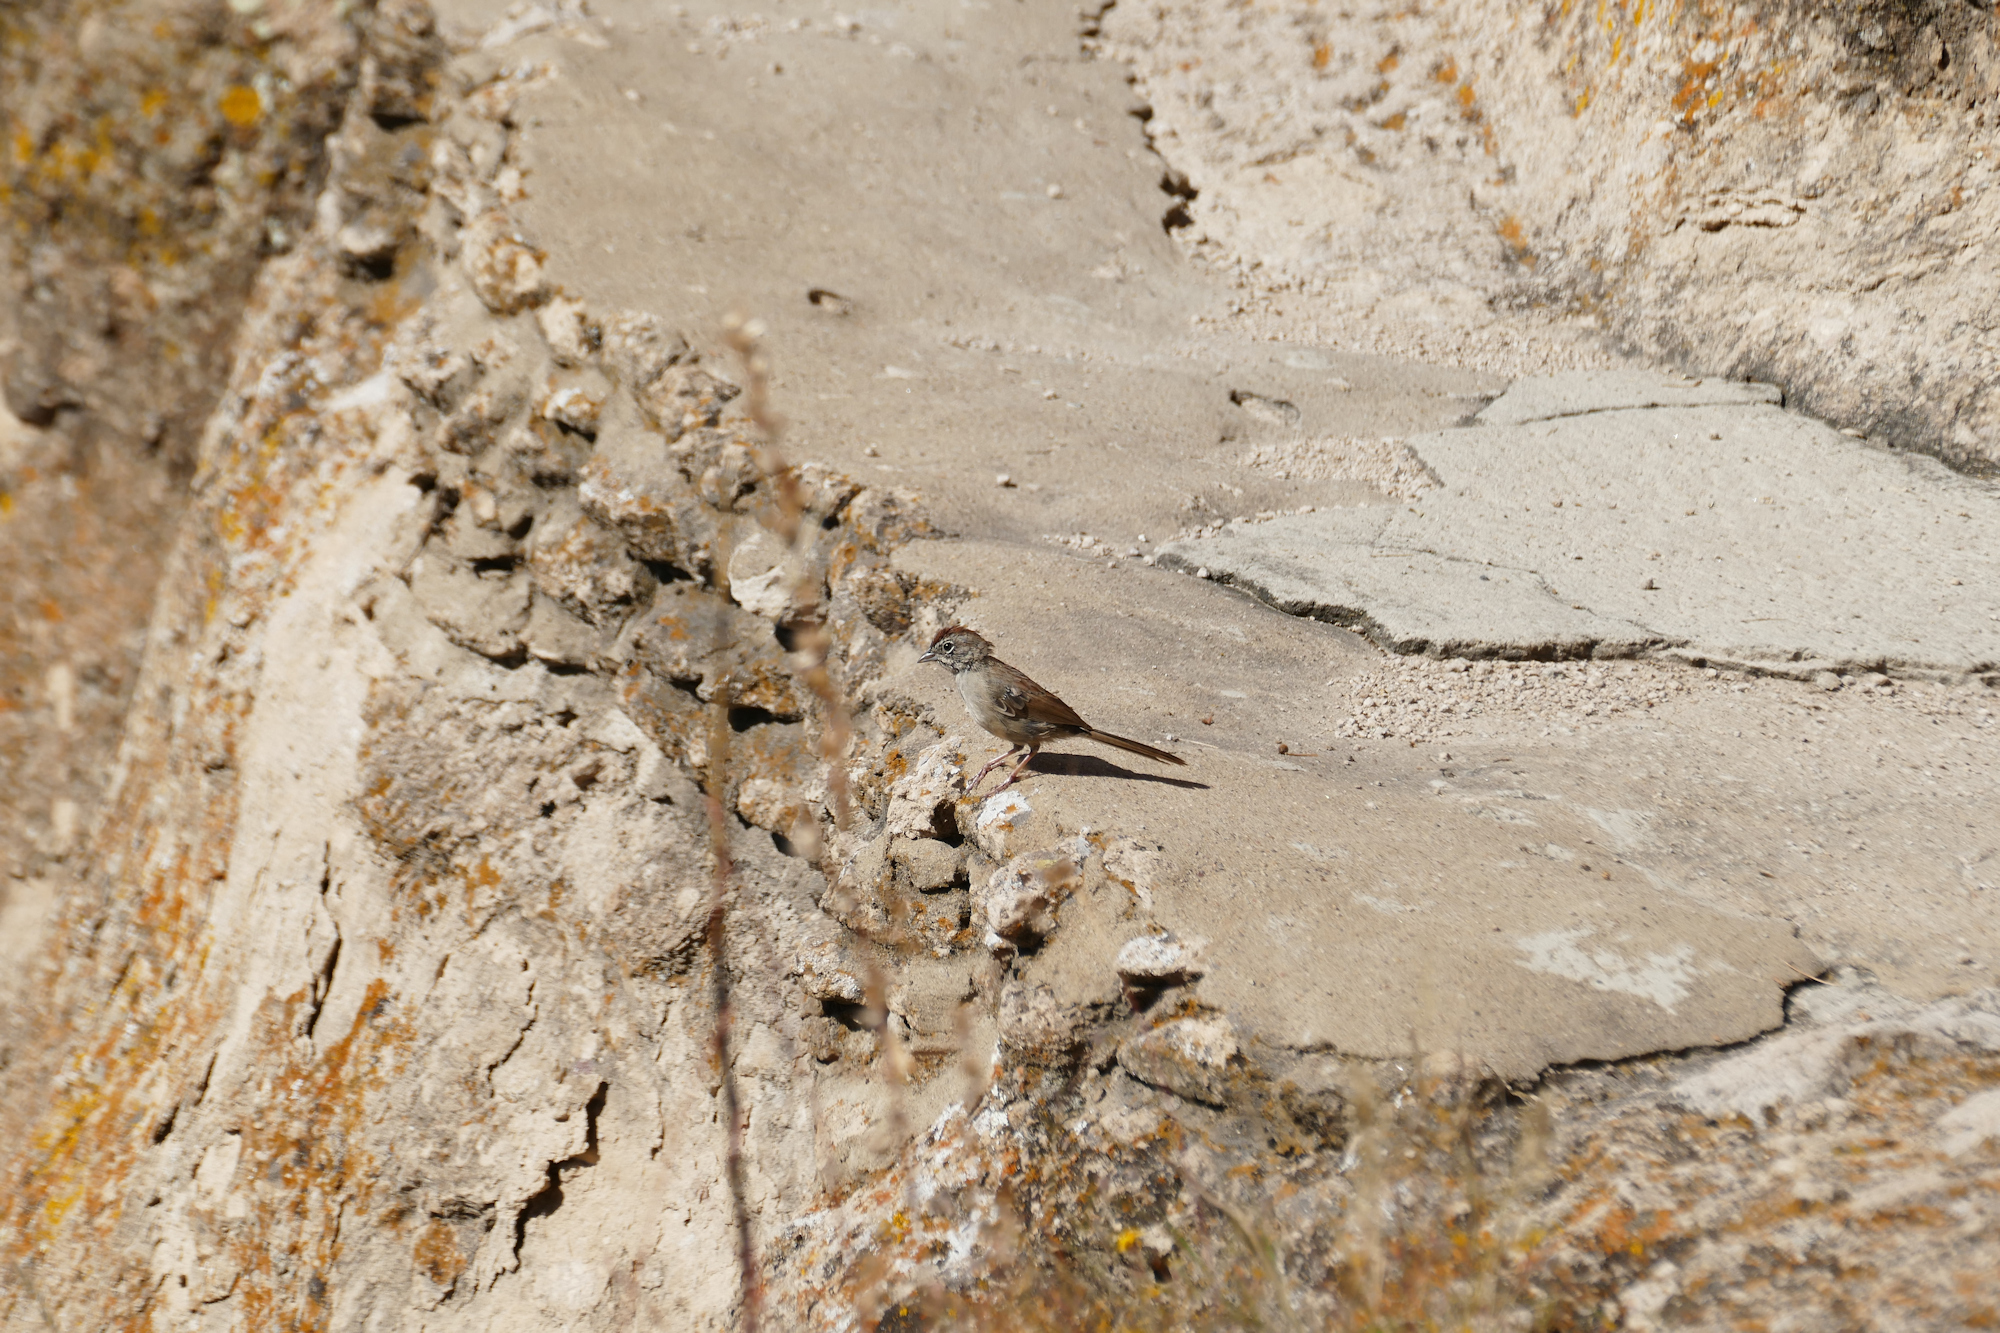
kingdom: Animalia
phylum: Chordata
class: Aves
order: Passeriformes
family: Passerellidae
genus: Aimophila
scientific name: Aimophila ruficeps
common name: Rufous-crowned sparrow
